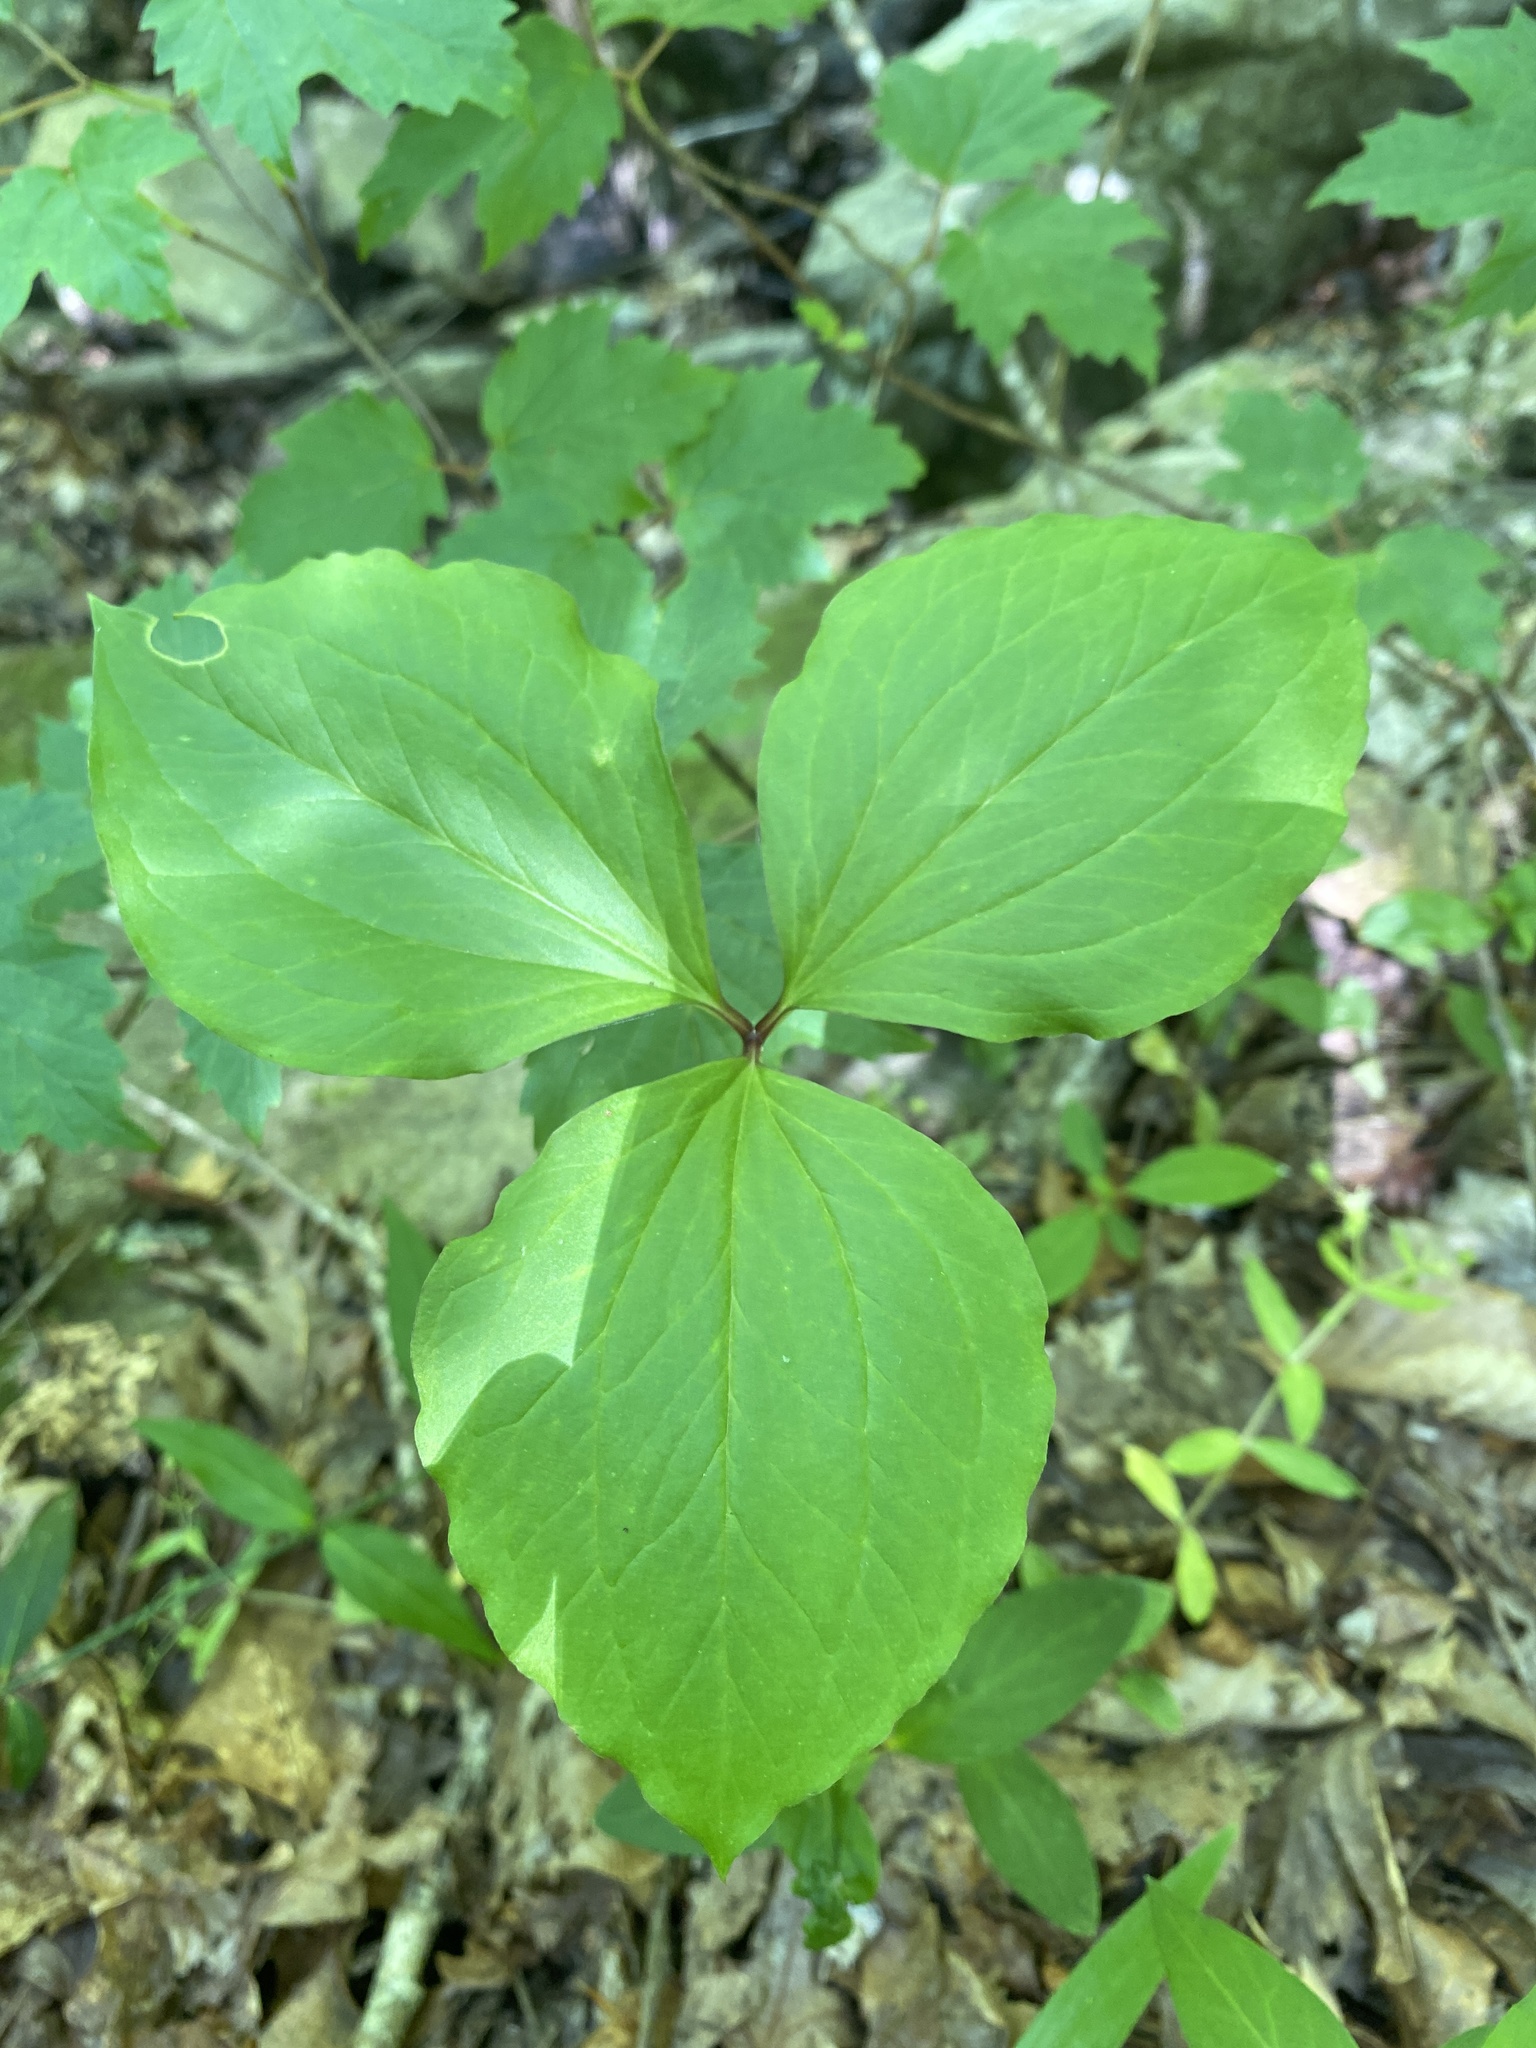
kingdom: Plantae
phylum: Tracheophyta
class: Liliopsida
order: Liliales
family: Melanthiaceae
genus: Trillium
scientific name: Trillium catesbaei
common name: Bashful trillium
